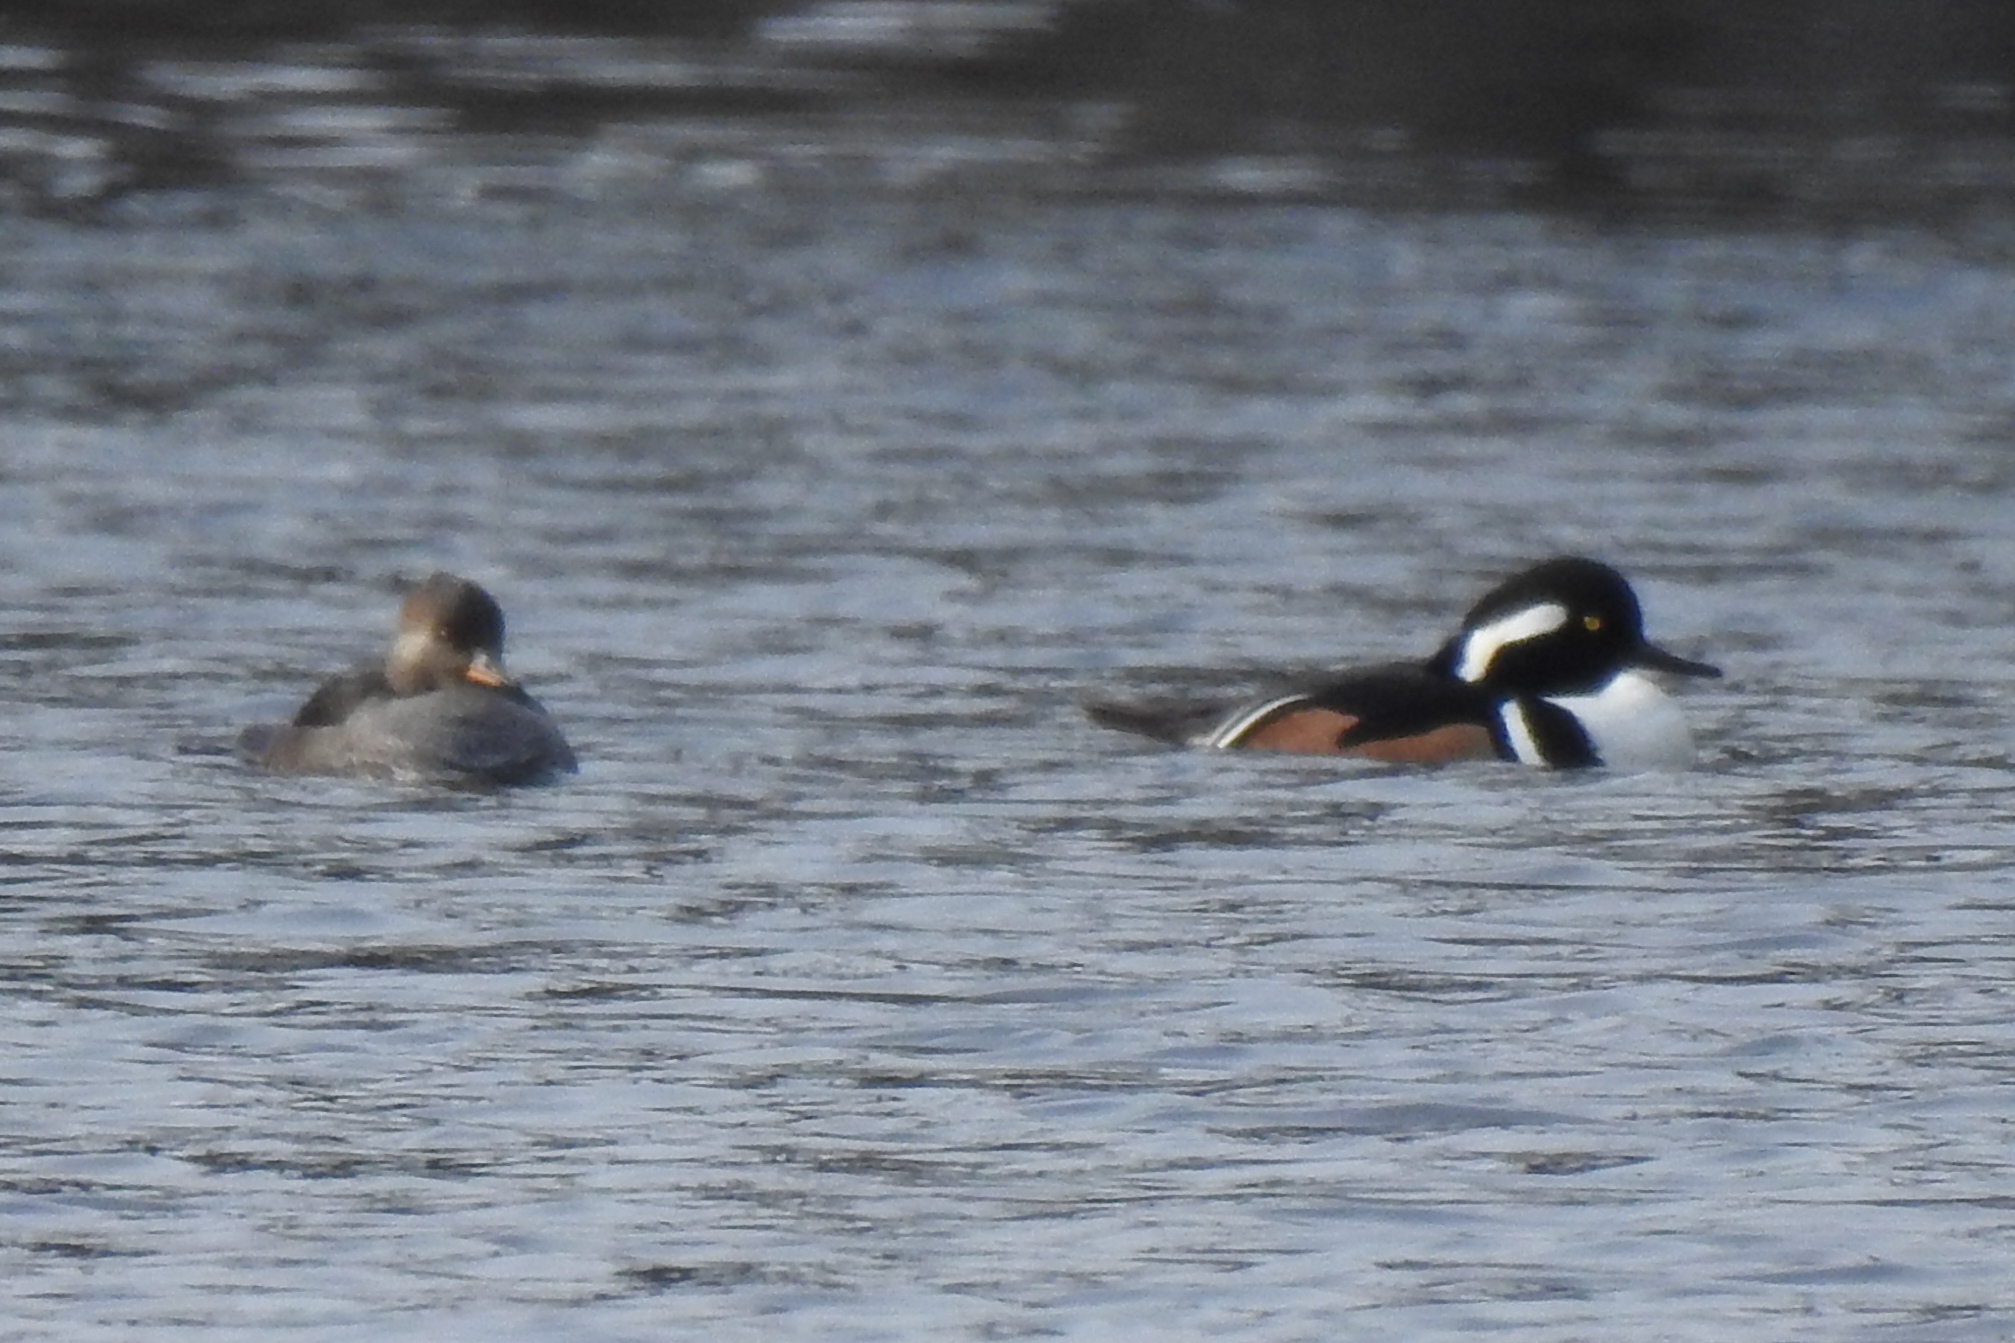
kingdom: Animalia
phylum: Chordata
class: Aves
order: Anseriformes
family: Anatidae
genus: Lophodytes
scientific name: Lophodytes cucullatus
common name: Hooded merganser
